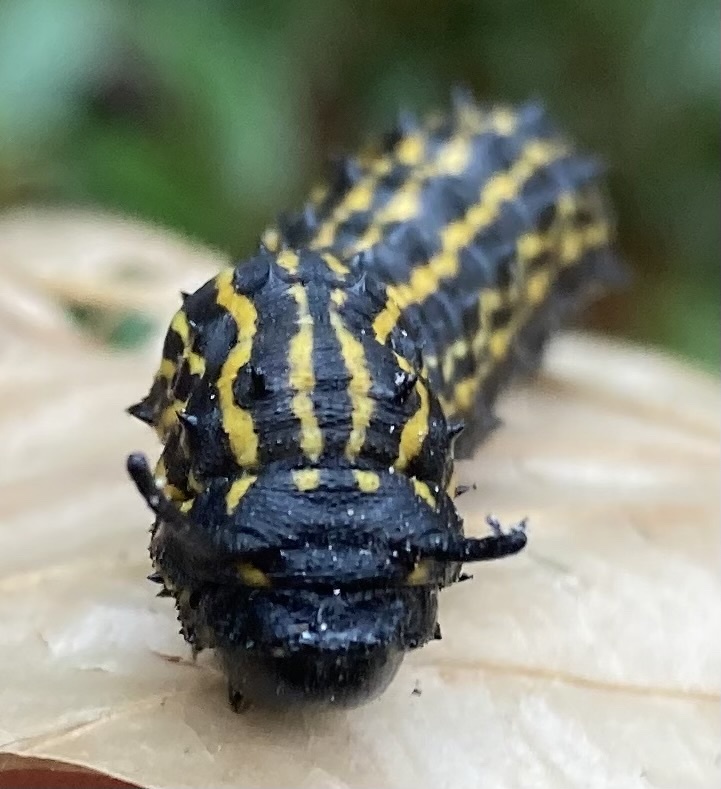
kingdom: Animalia
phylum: Arthropoda
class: Insecta
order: Lepidoptera
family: Saturniidae
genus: Anisota
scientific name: Anisota senatoria
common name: Orange-striped oakworm moth
